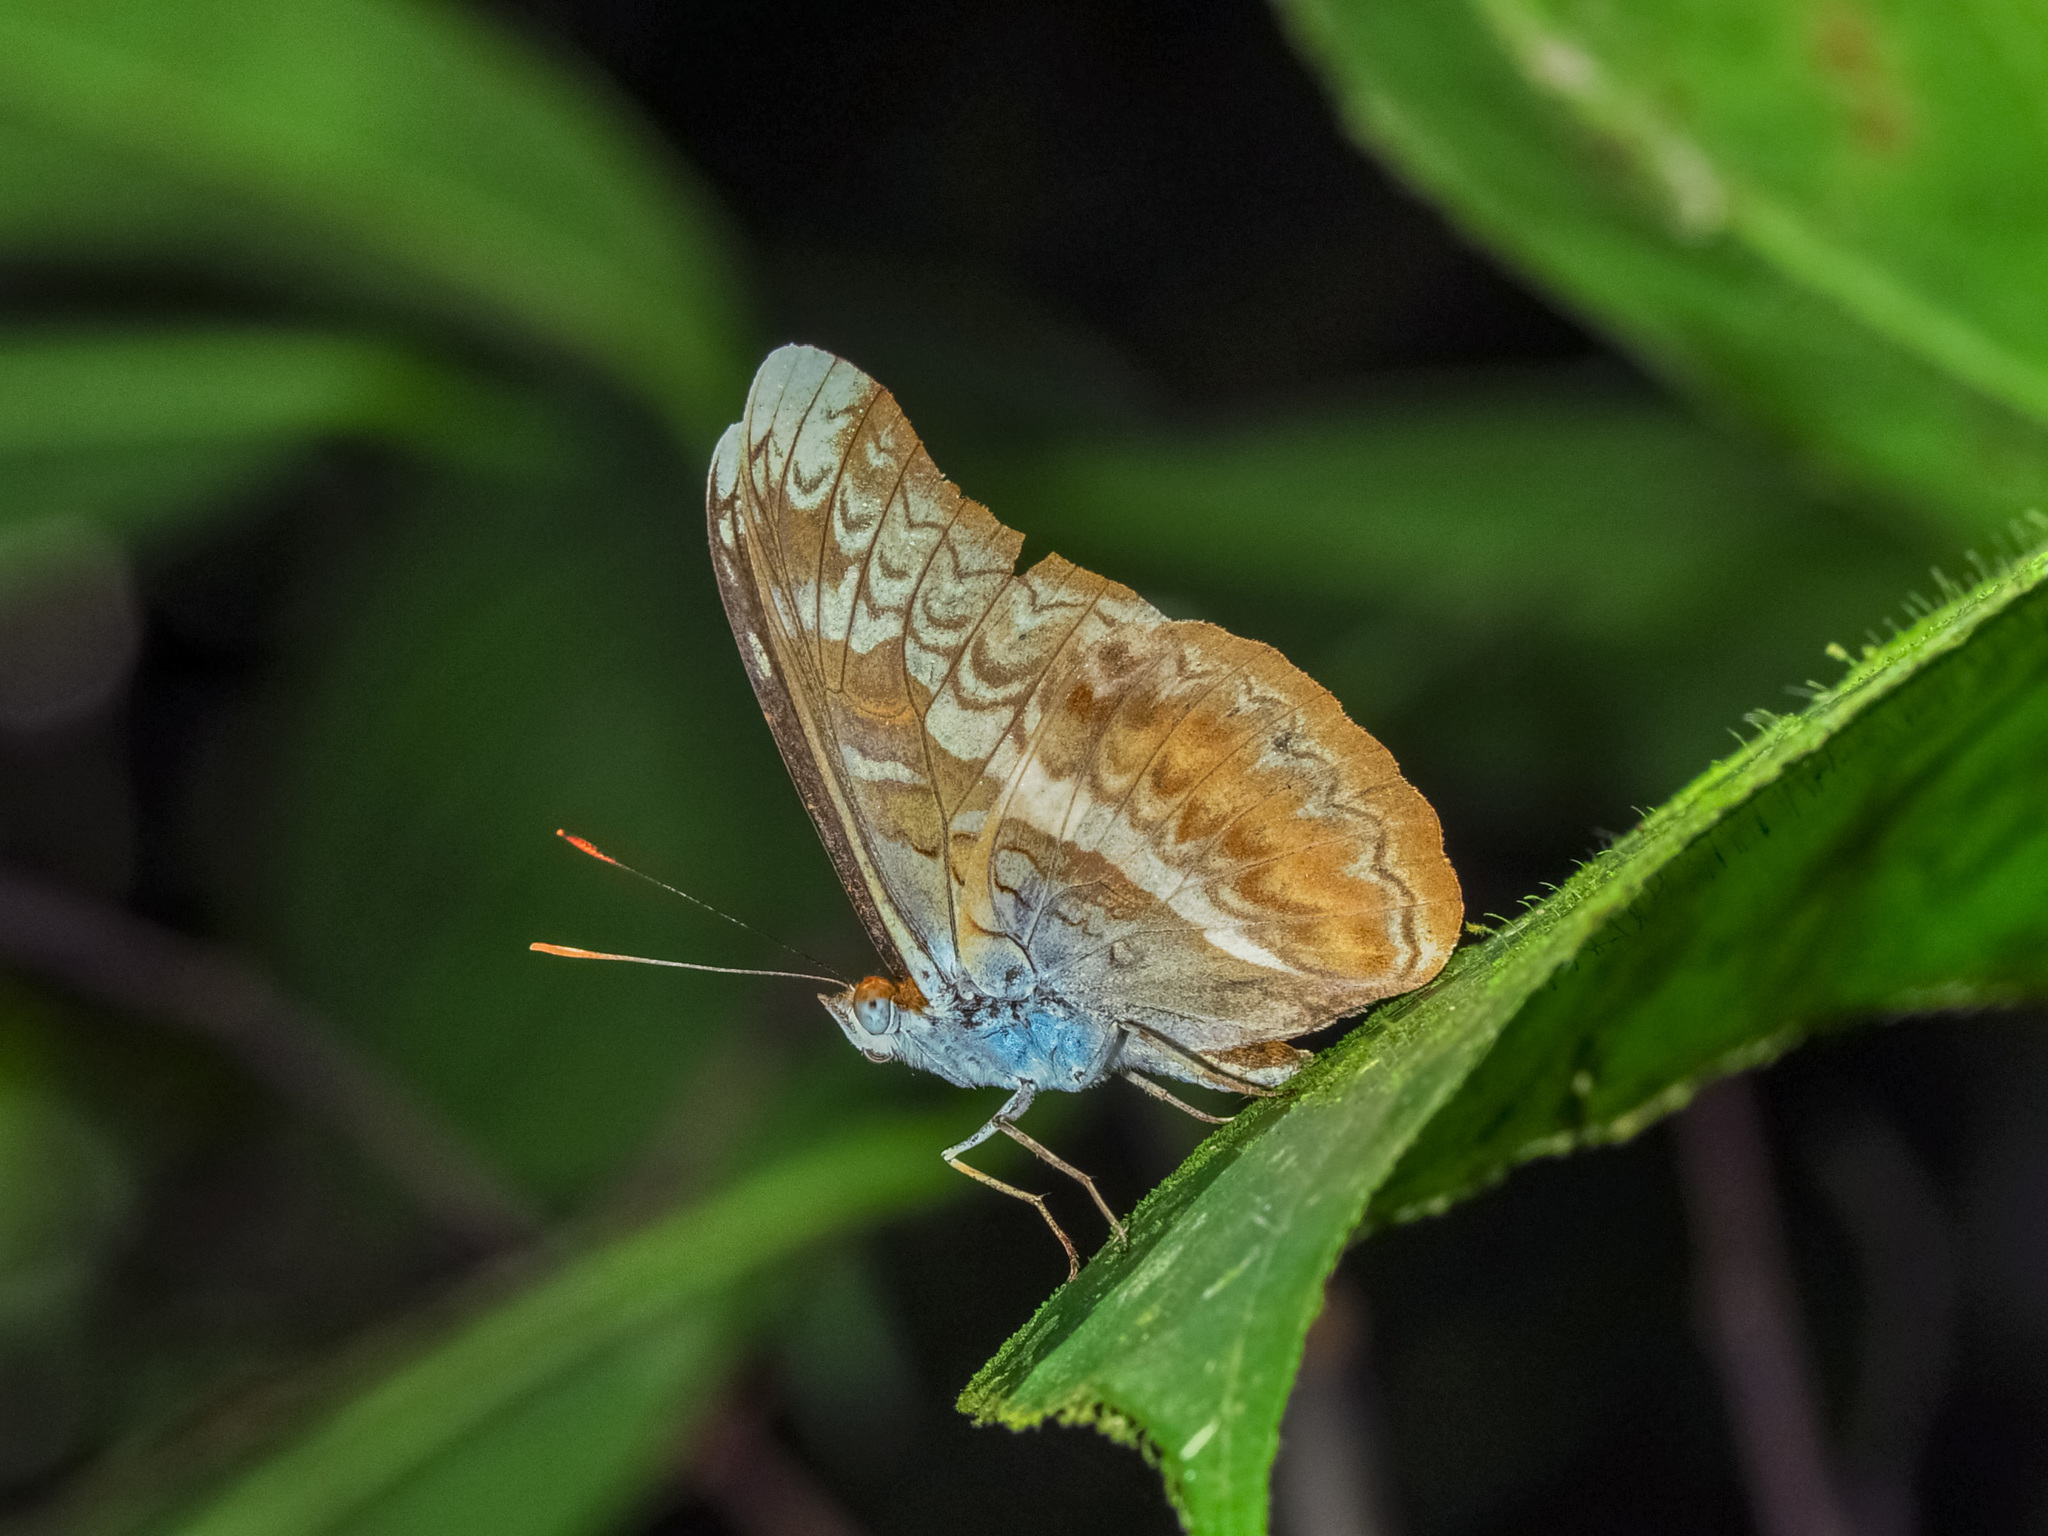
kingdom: Animalia
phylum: Arthropoda
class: Insecta
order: Lepidoptera
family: Nymphalidae
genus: Lebadea
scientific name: Lebadea martha
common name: Knight
